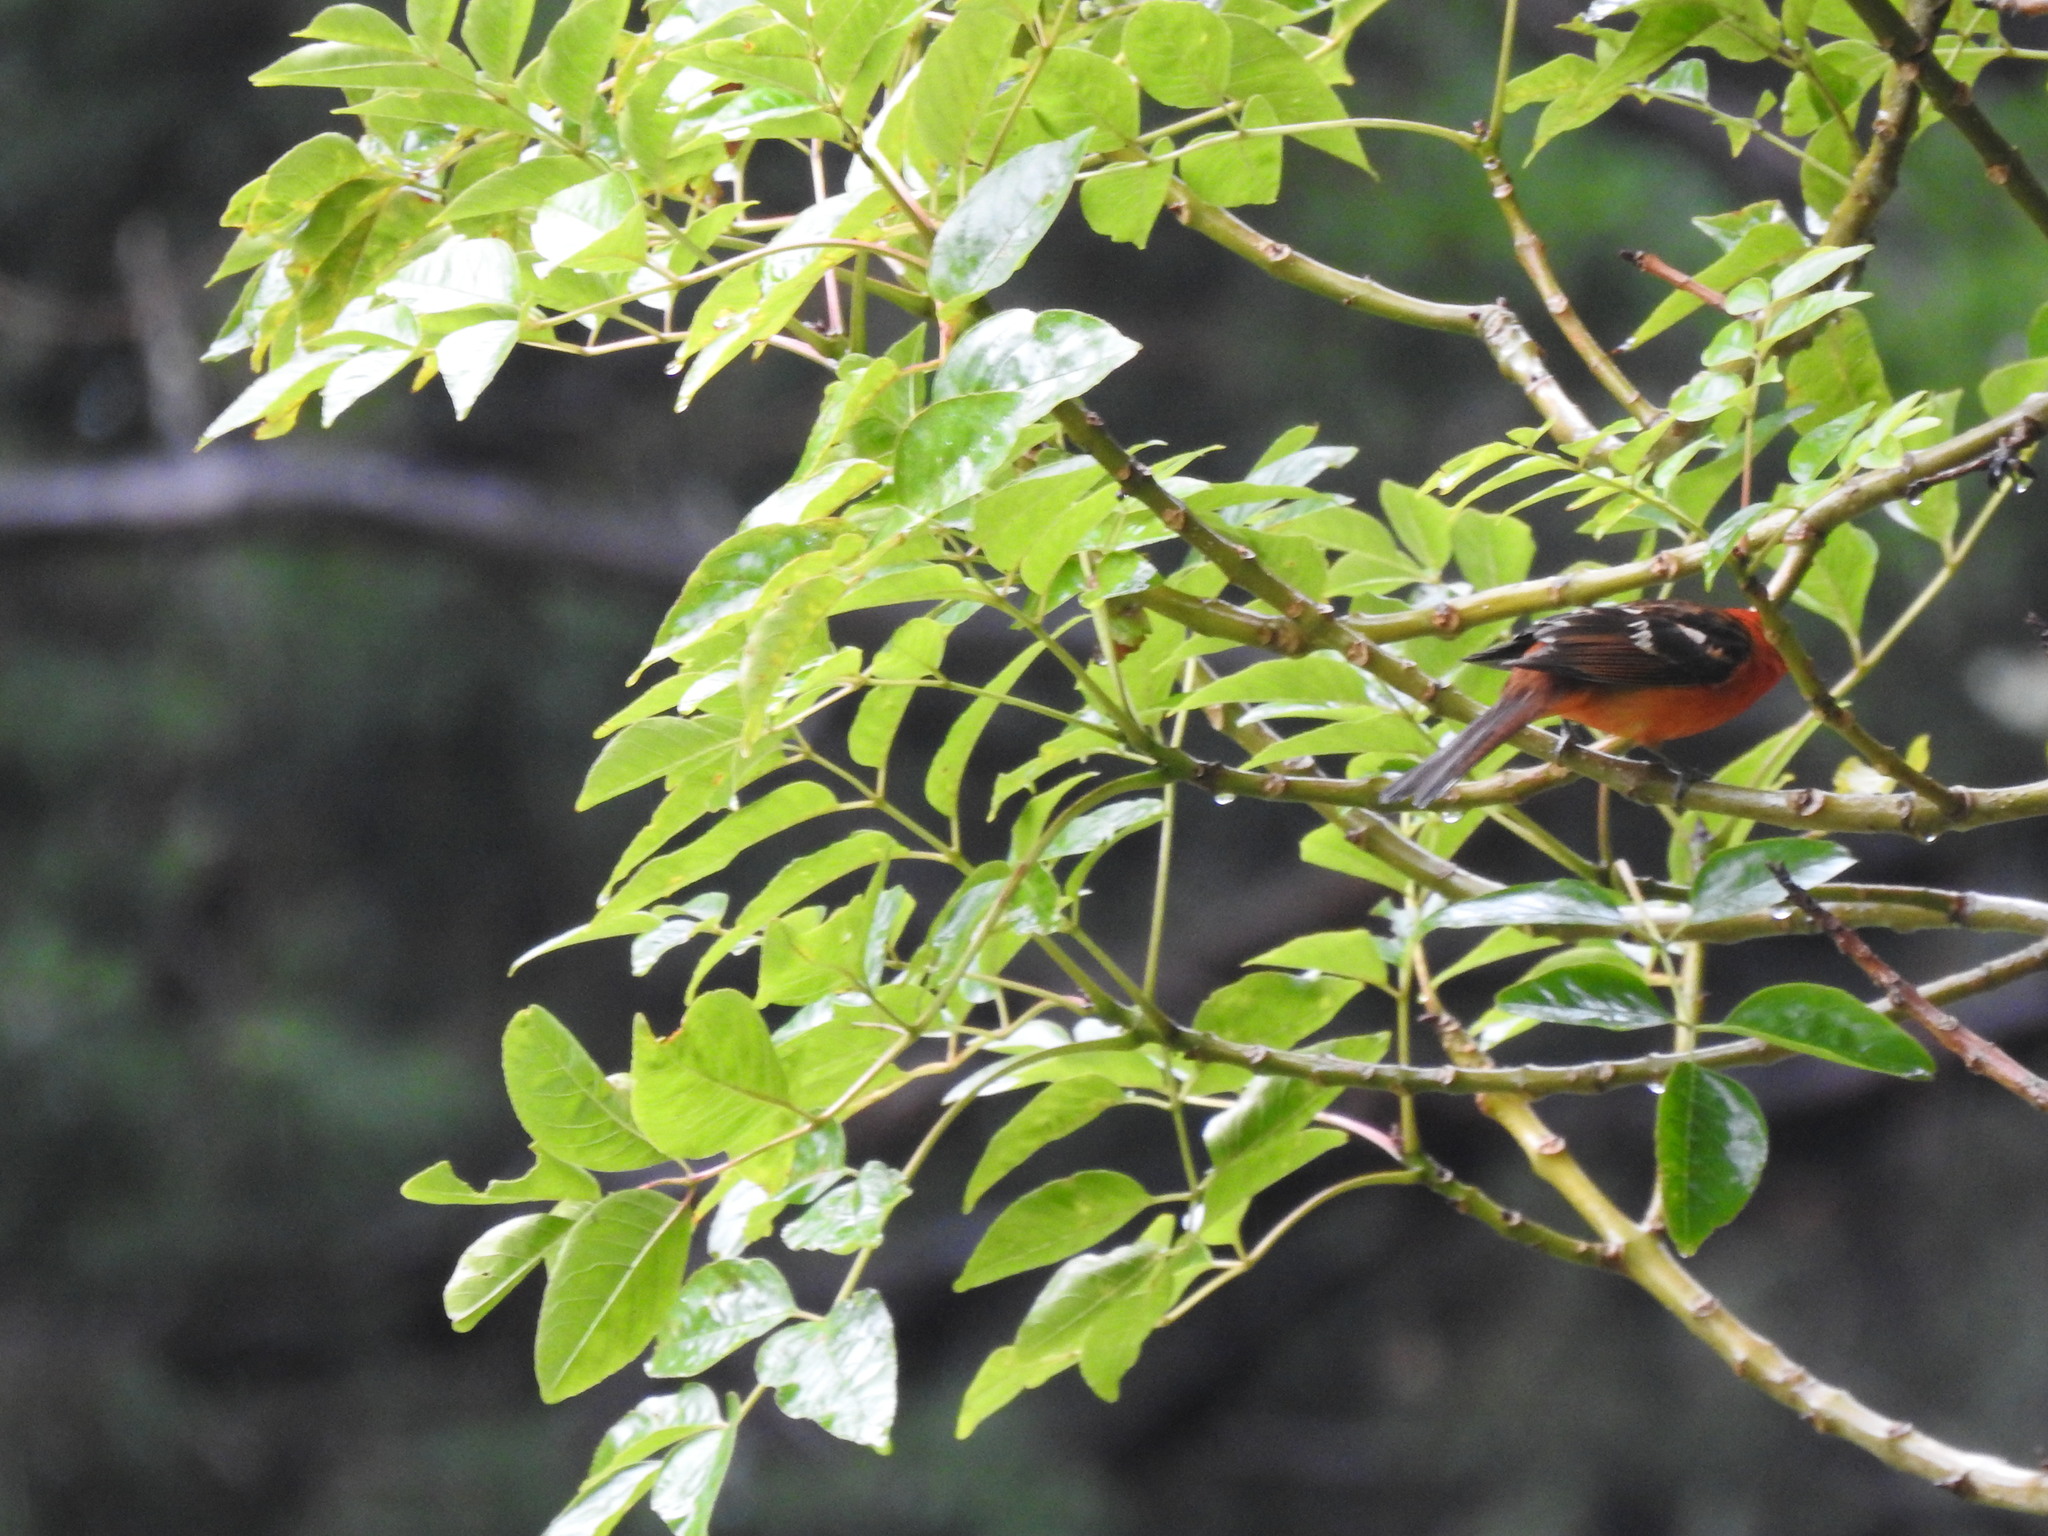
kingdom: Animalia
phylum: Chordata
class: Aves
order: Passeriformes
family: Cardinalidae
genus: Piranga
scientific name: Piranga bidentata
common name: Flame-colored tanager
